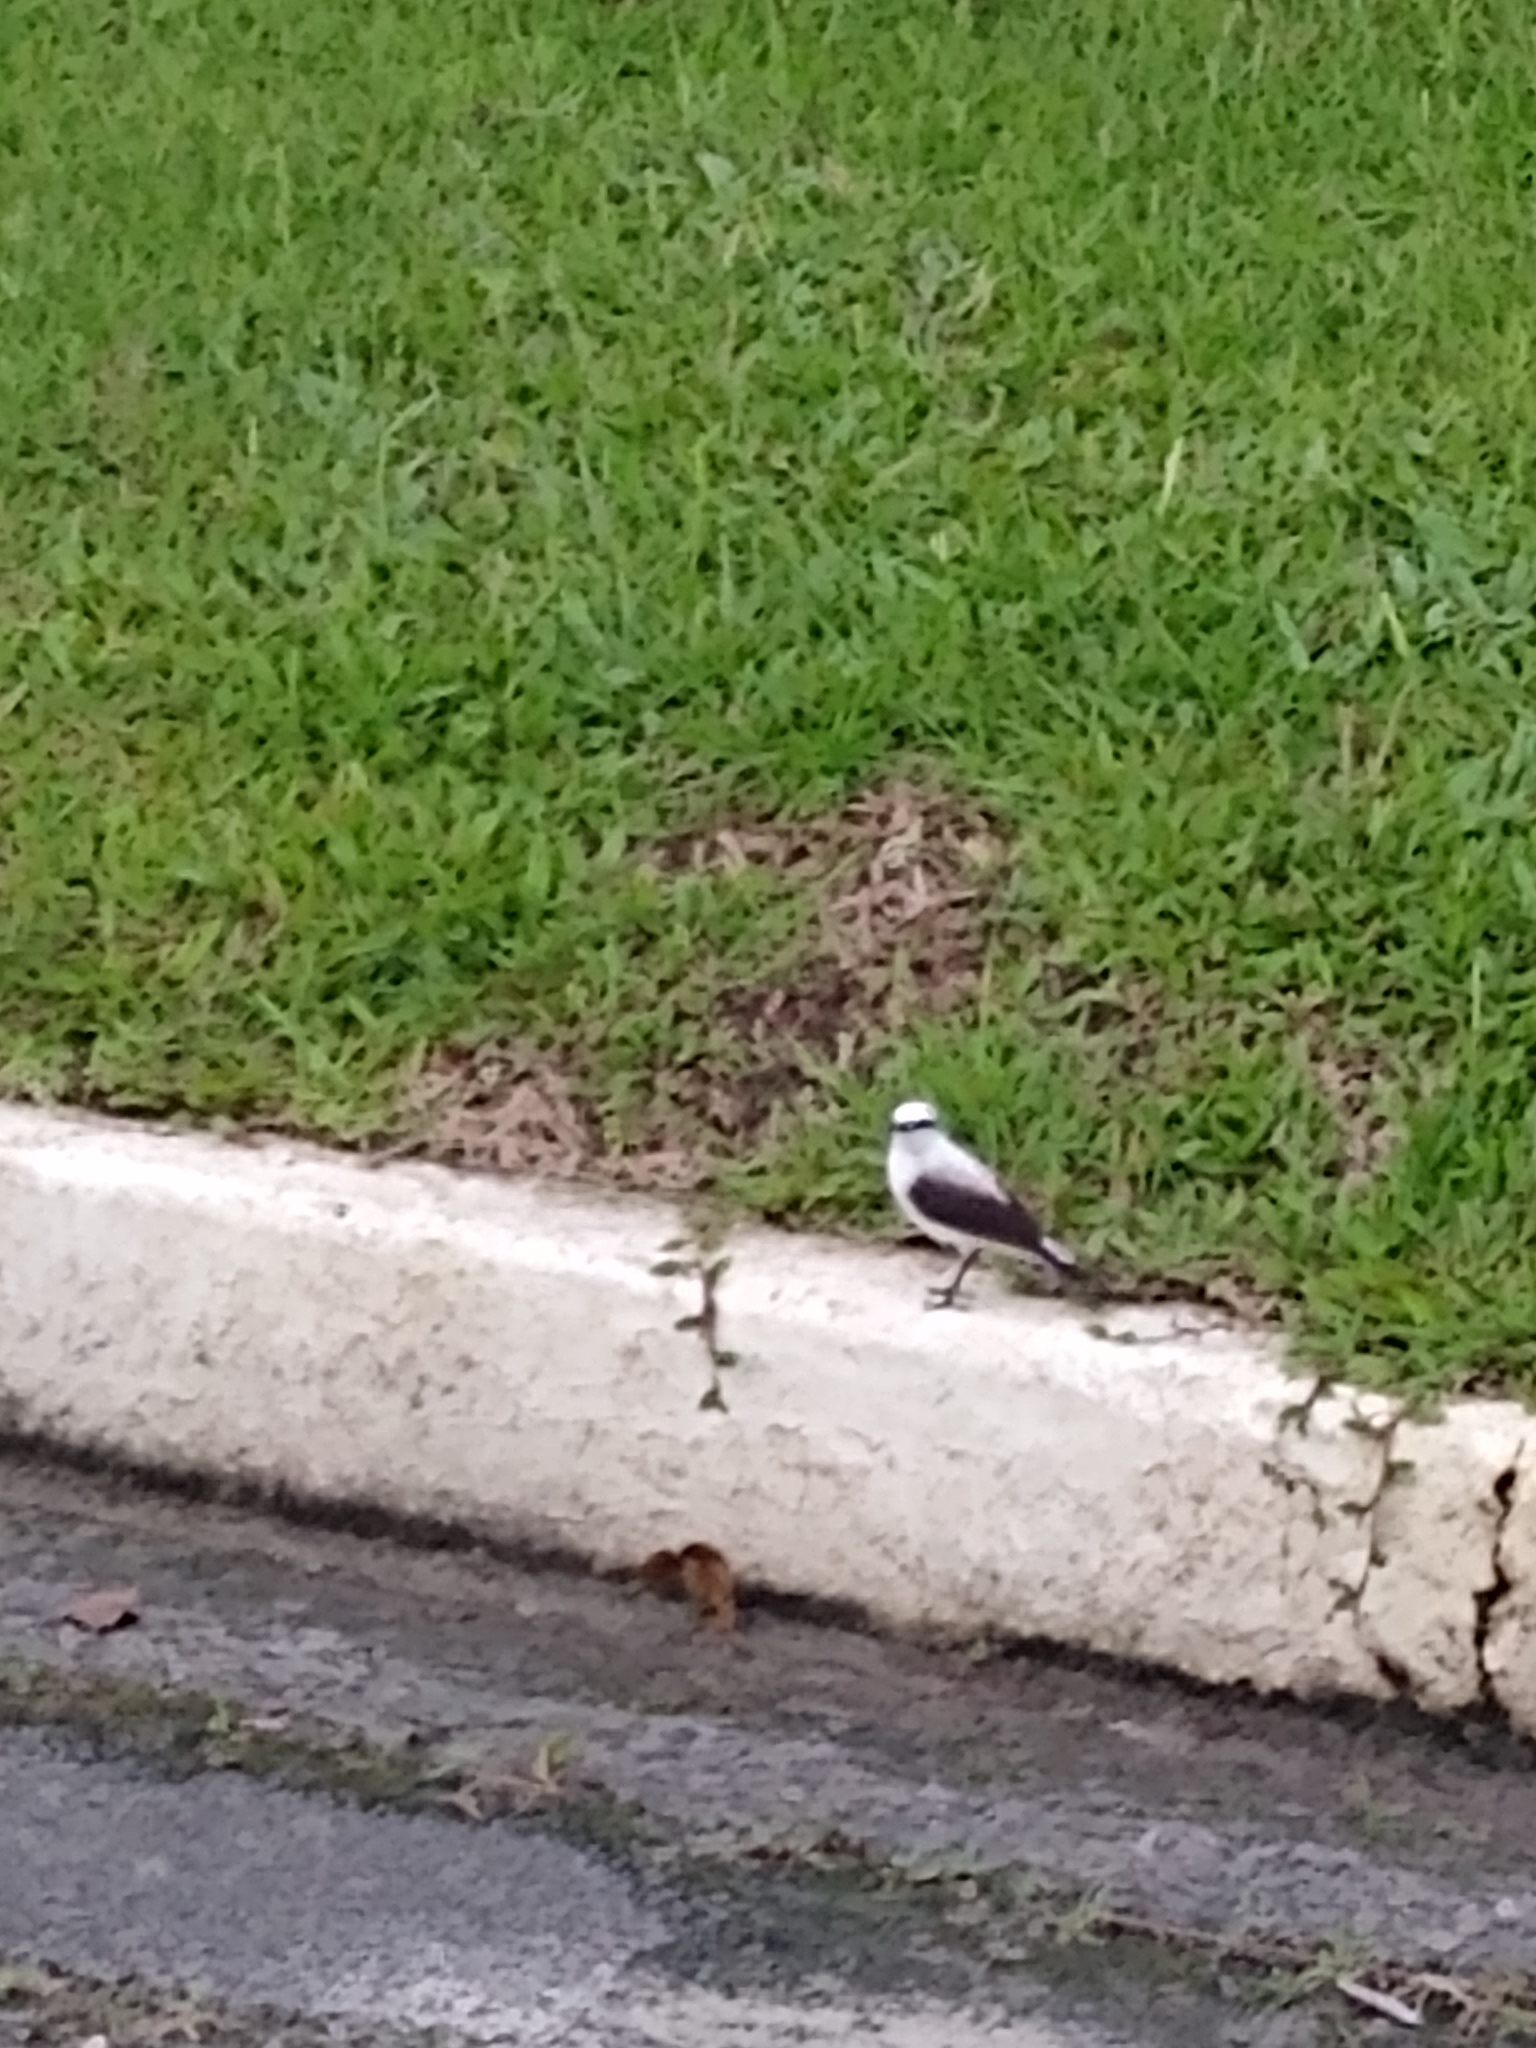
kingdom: Animalia
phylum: Chordata
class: Aves
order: Passeriformes
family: Tyrannidae
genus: Fluvicola
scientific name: Fluvicola nengeta
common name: Masked water tyrant
